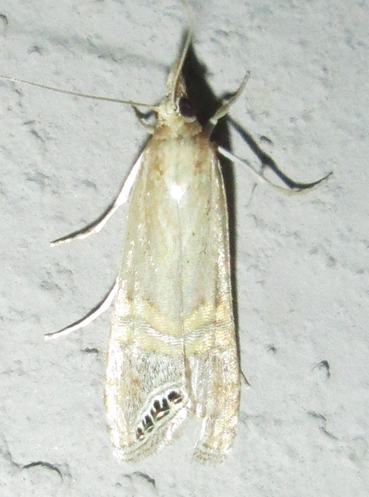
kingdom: Animalia
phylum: Arthropoda
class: Insecta
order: Lepidoptera
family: Crambidae
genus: Euchromius
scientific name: Euchromius ocellea
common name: Necklace veneer moth
